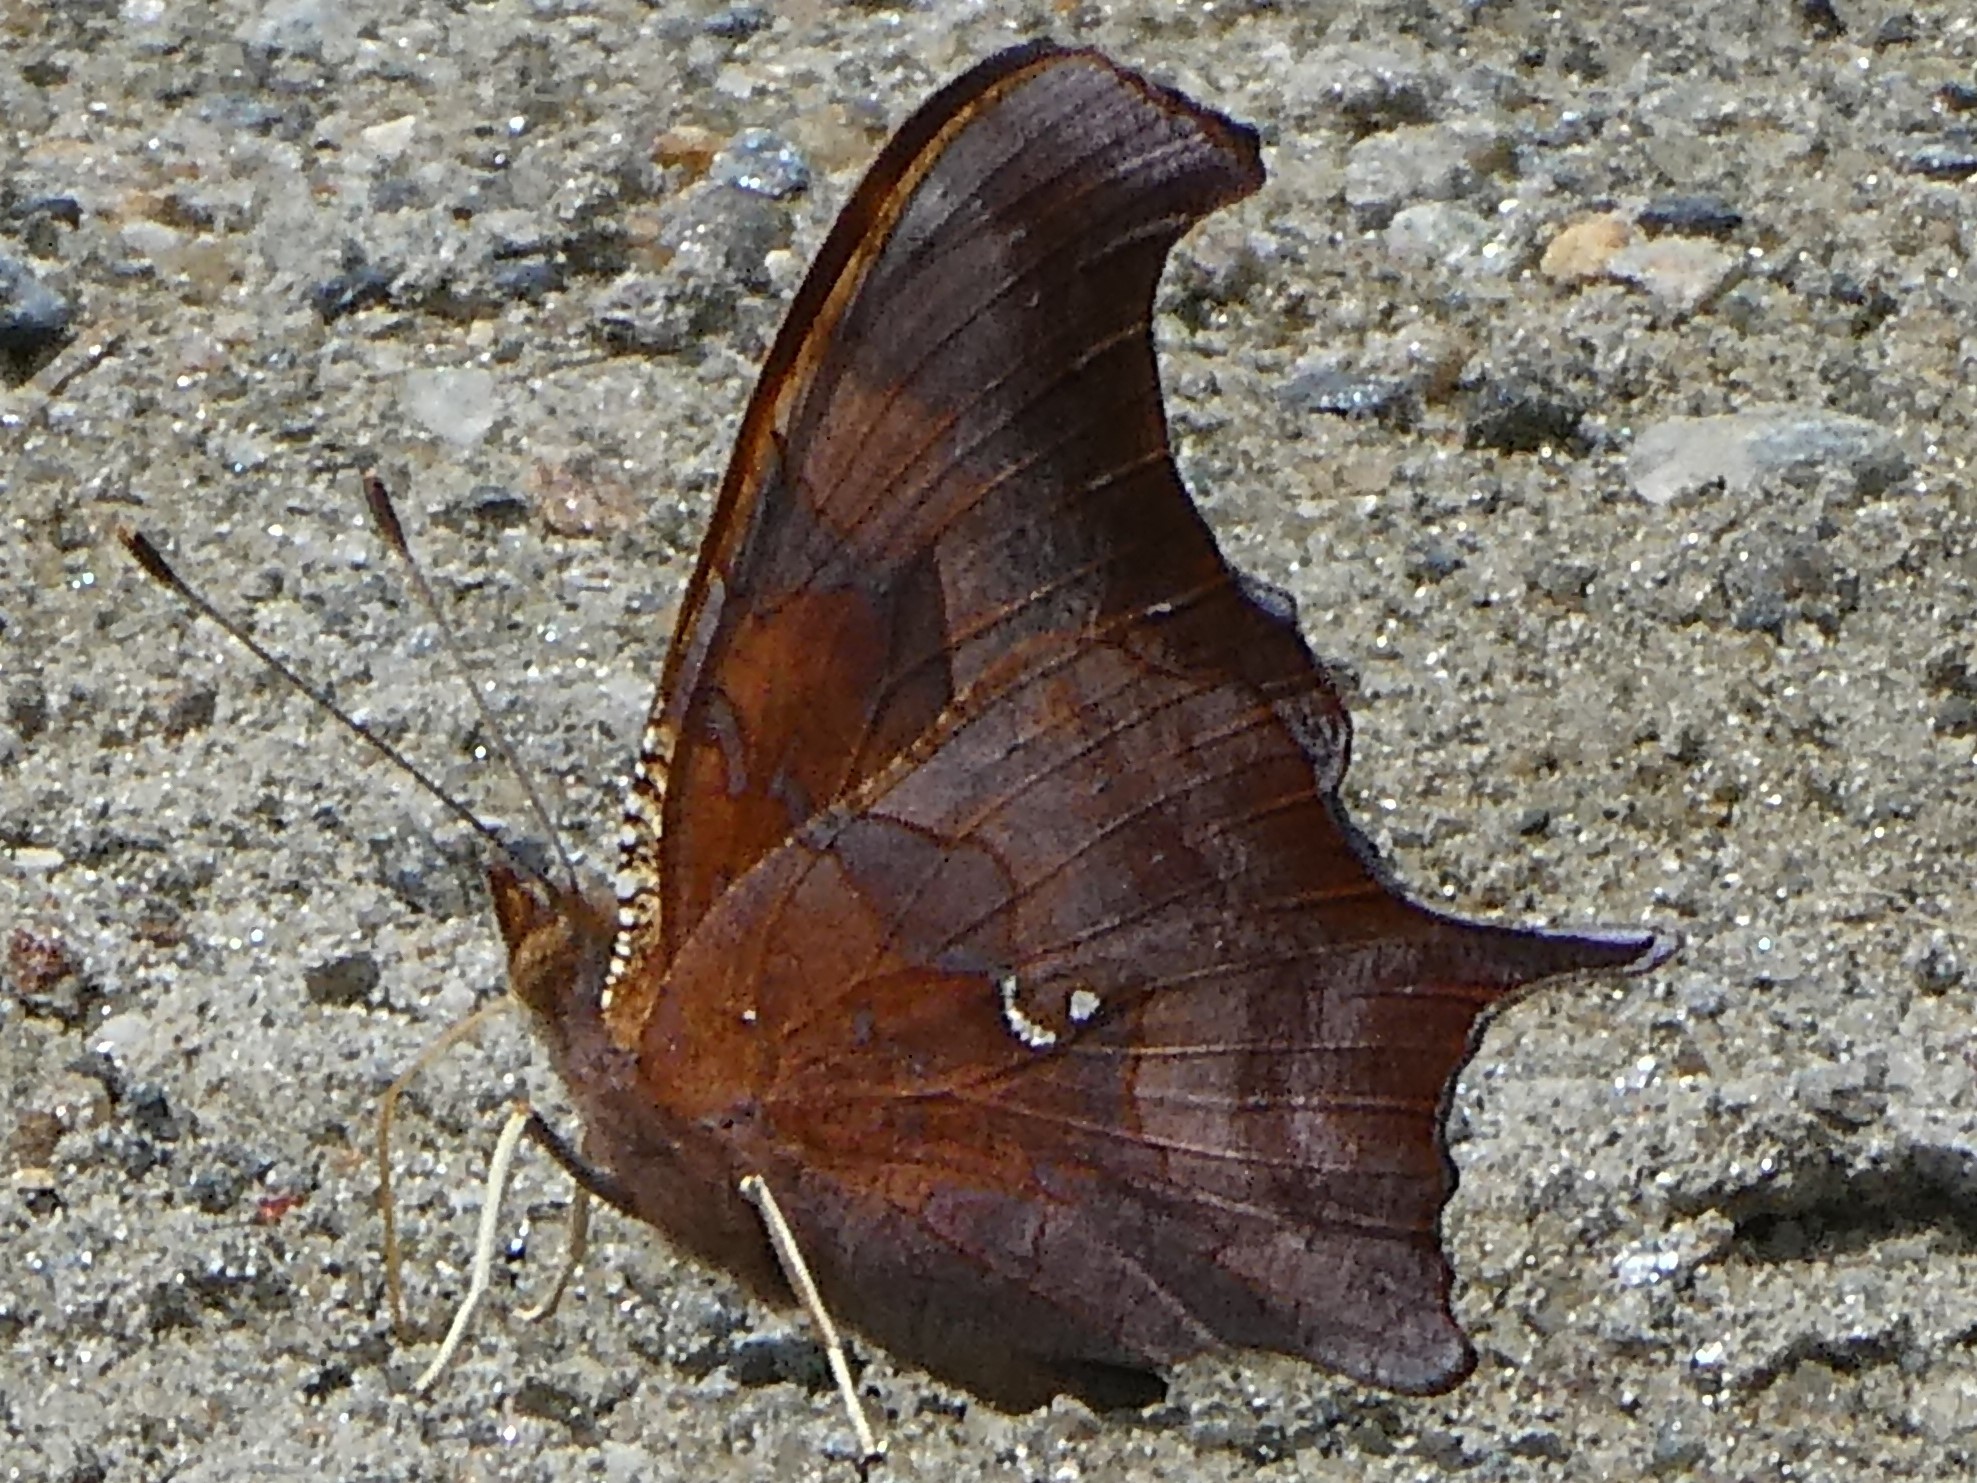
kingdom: Animalia
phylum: Arthropoda
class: Insecta
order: Lepidoptera
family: Nymphalidae
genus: Polygonia
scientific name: Polygonia interrogationis
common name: Question mark
